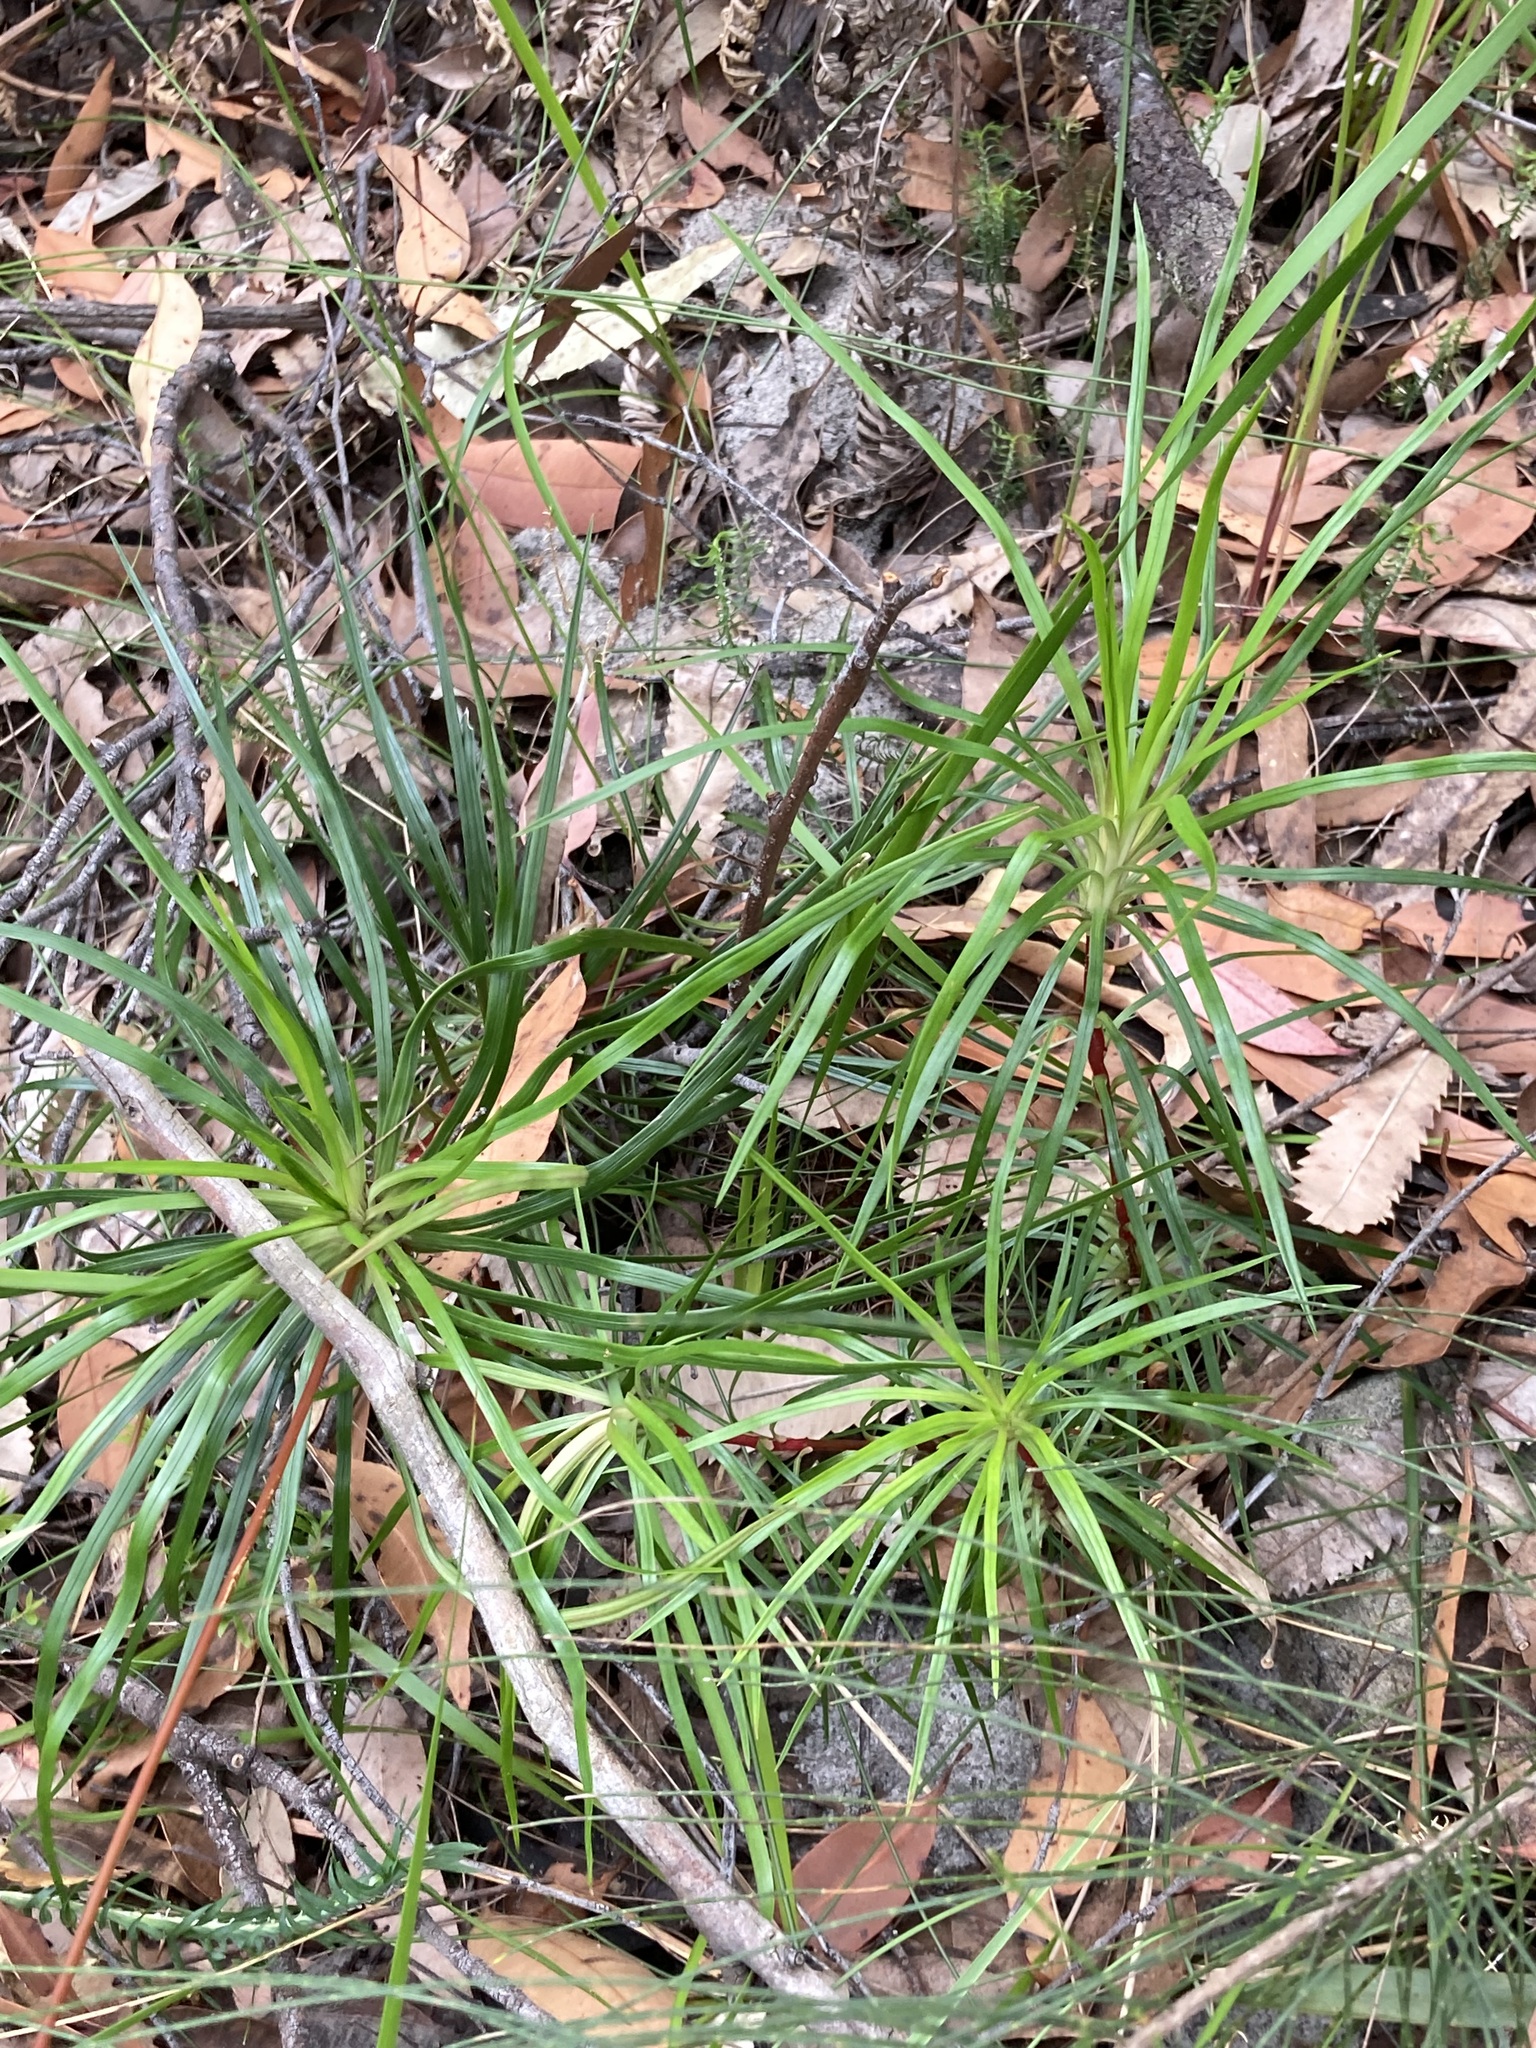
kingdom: Plantae
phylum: Tracheophyta
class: Magnoliopsida
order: Asterales
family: Stylidiaceae
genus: Stylidium
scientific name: Stylidium productum
